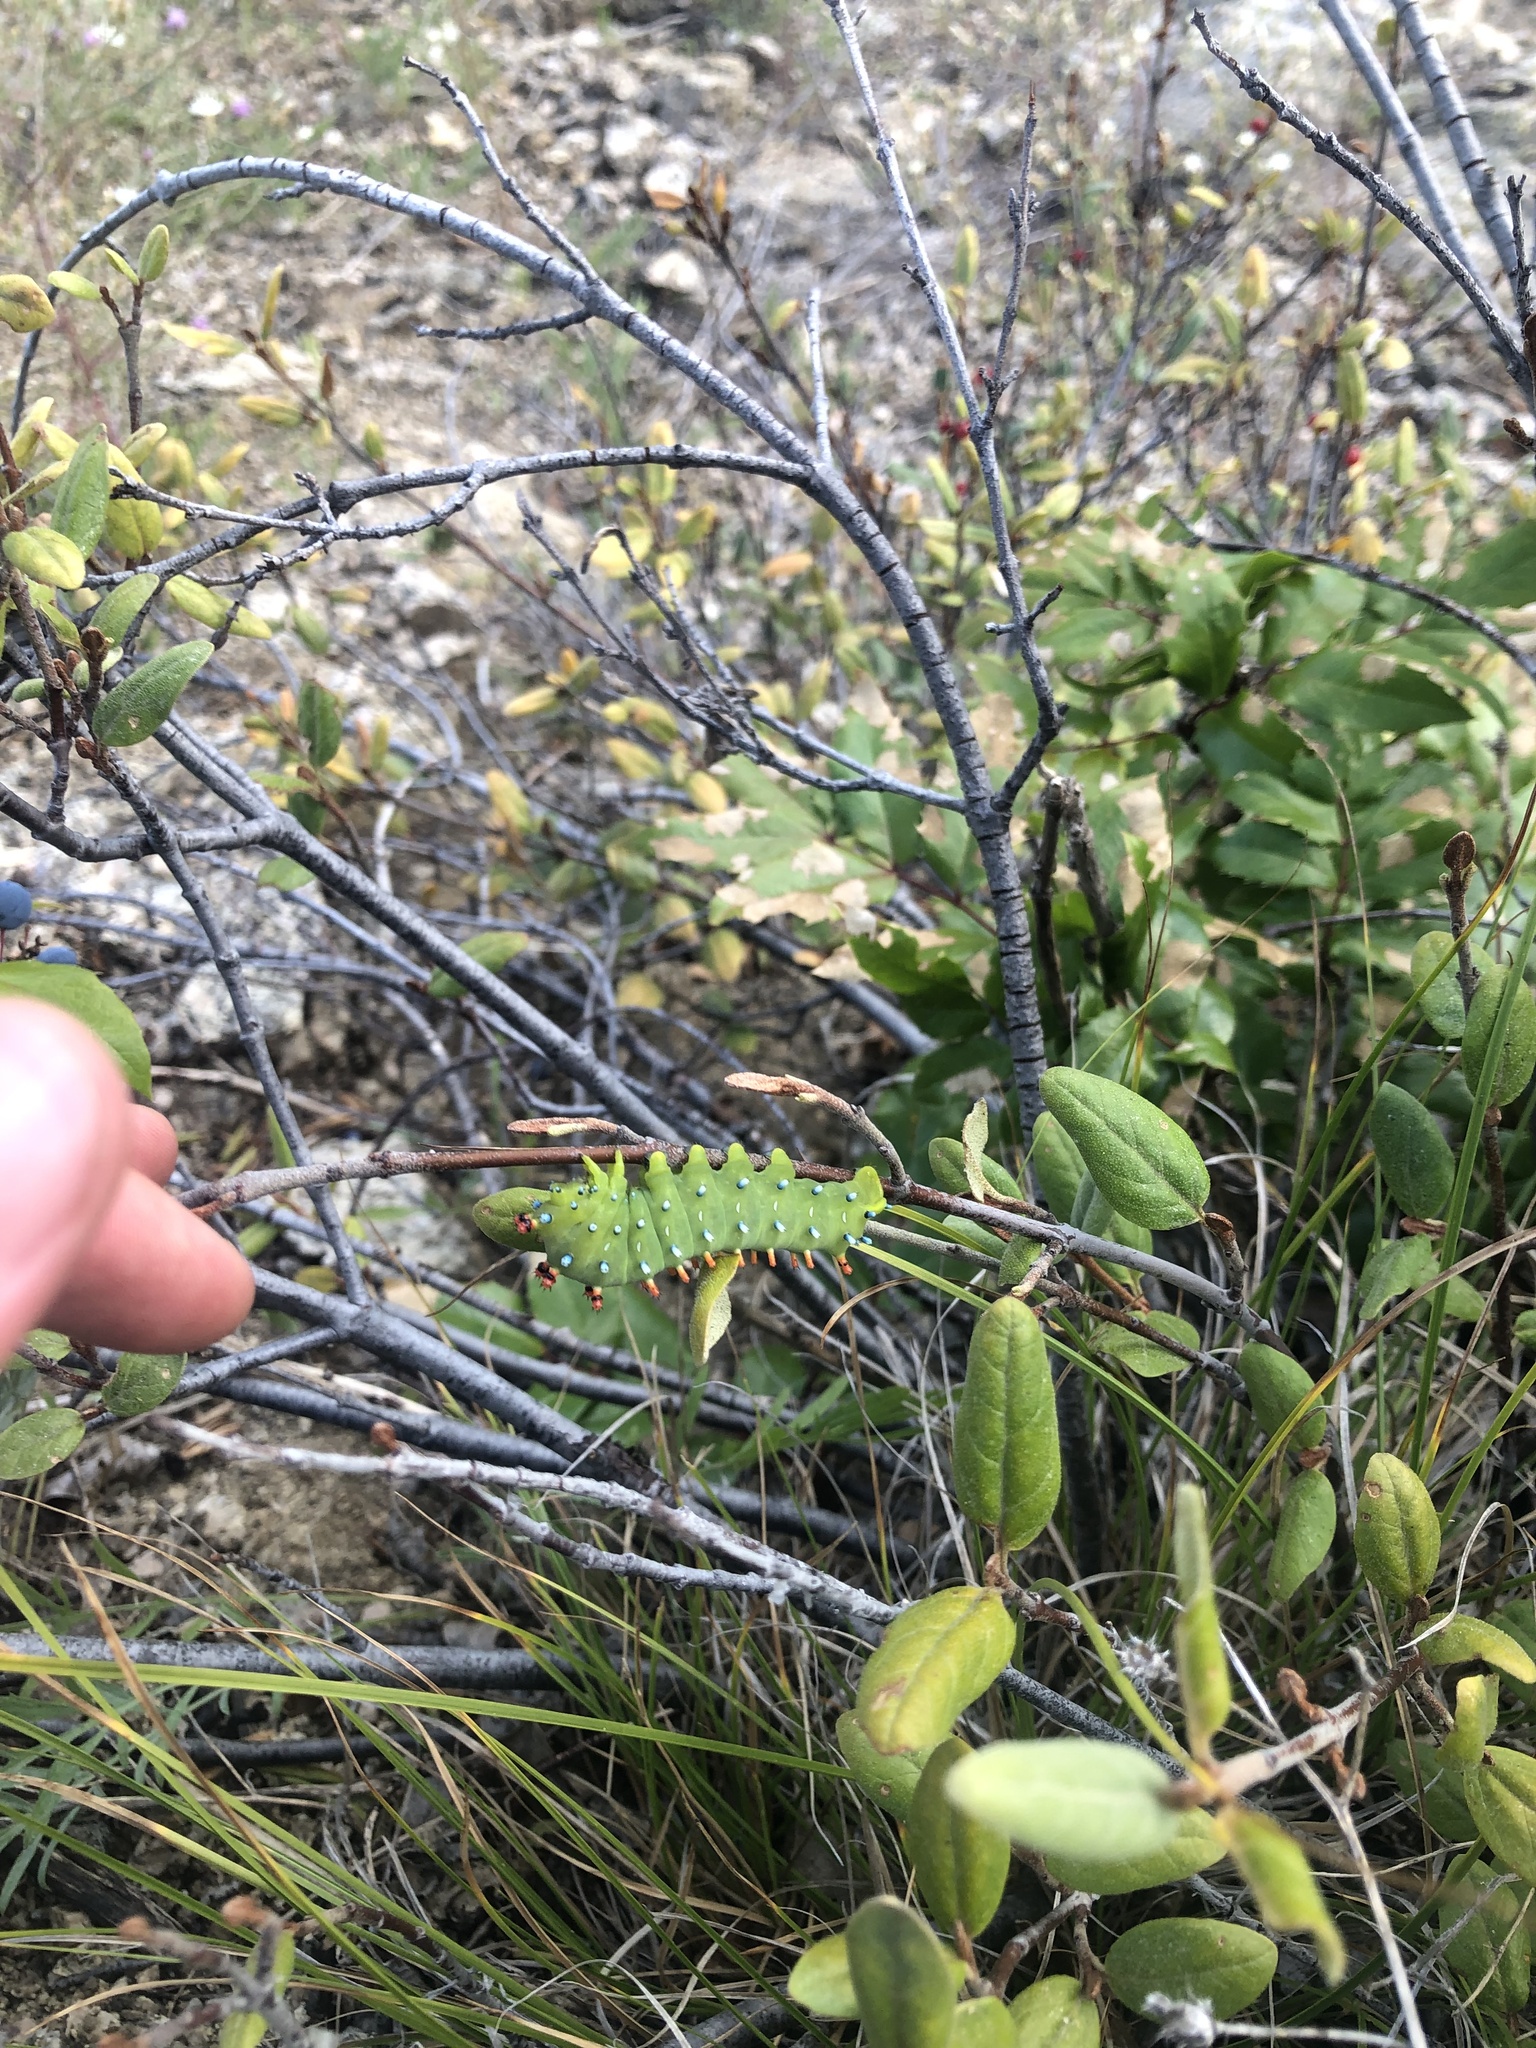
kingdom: Animalia
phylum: Arthropoda
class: Insecta
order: Lepidoptera
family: Saturniidae
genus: Hyalophora
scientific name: Hyalophora euryalus
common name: Ceanothus silkmoth
